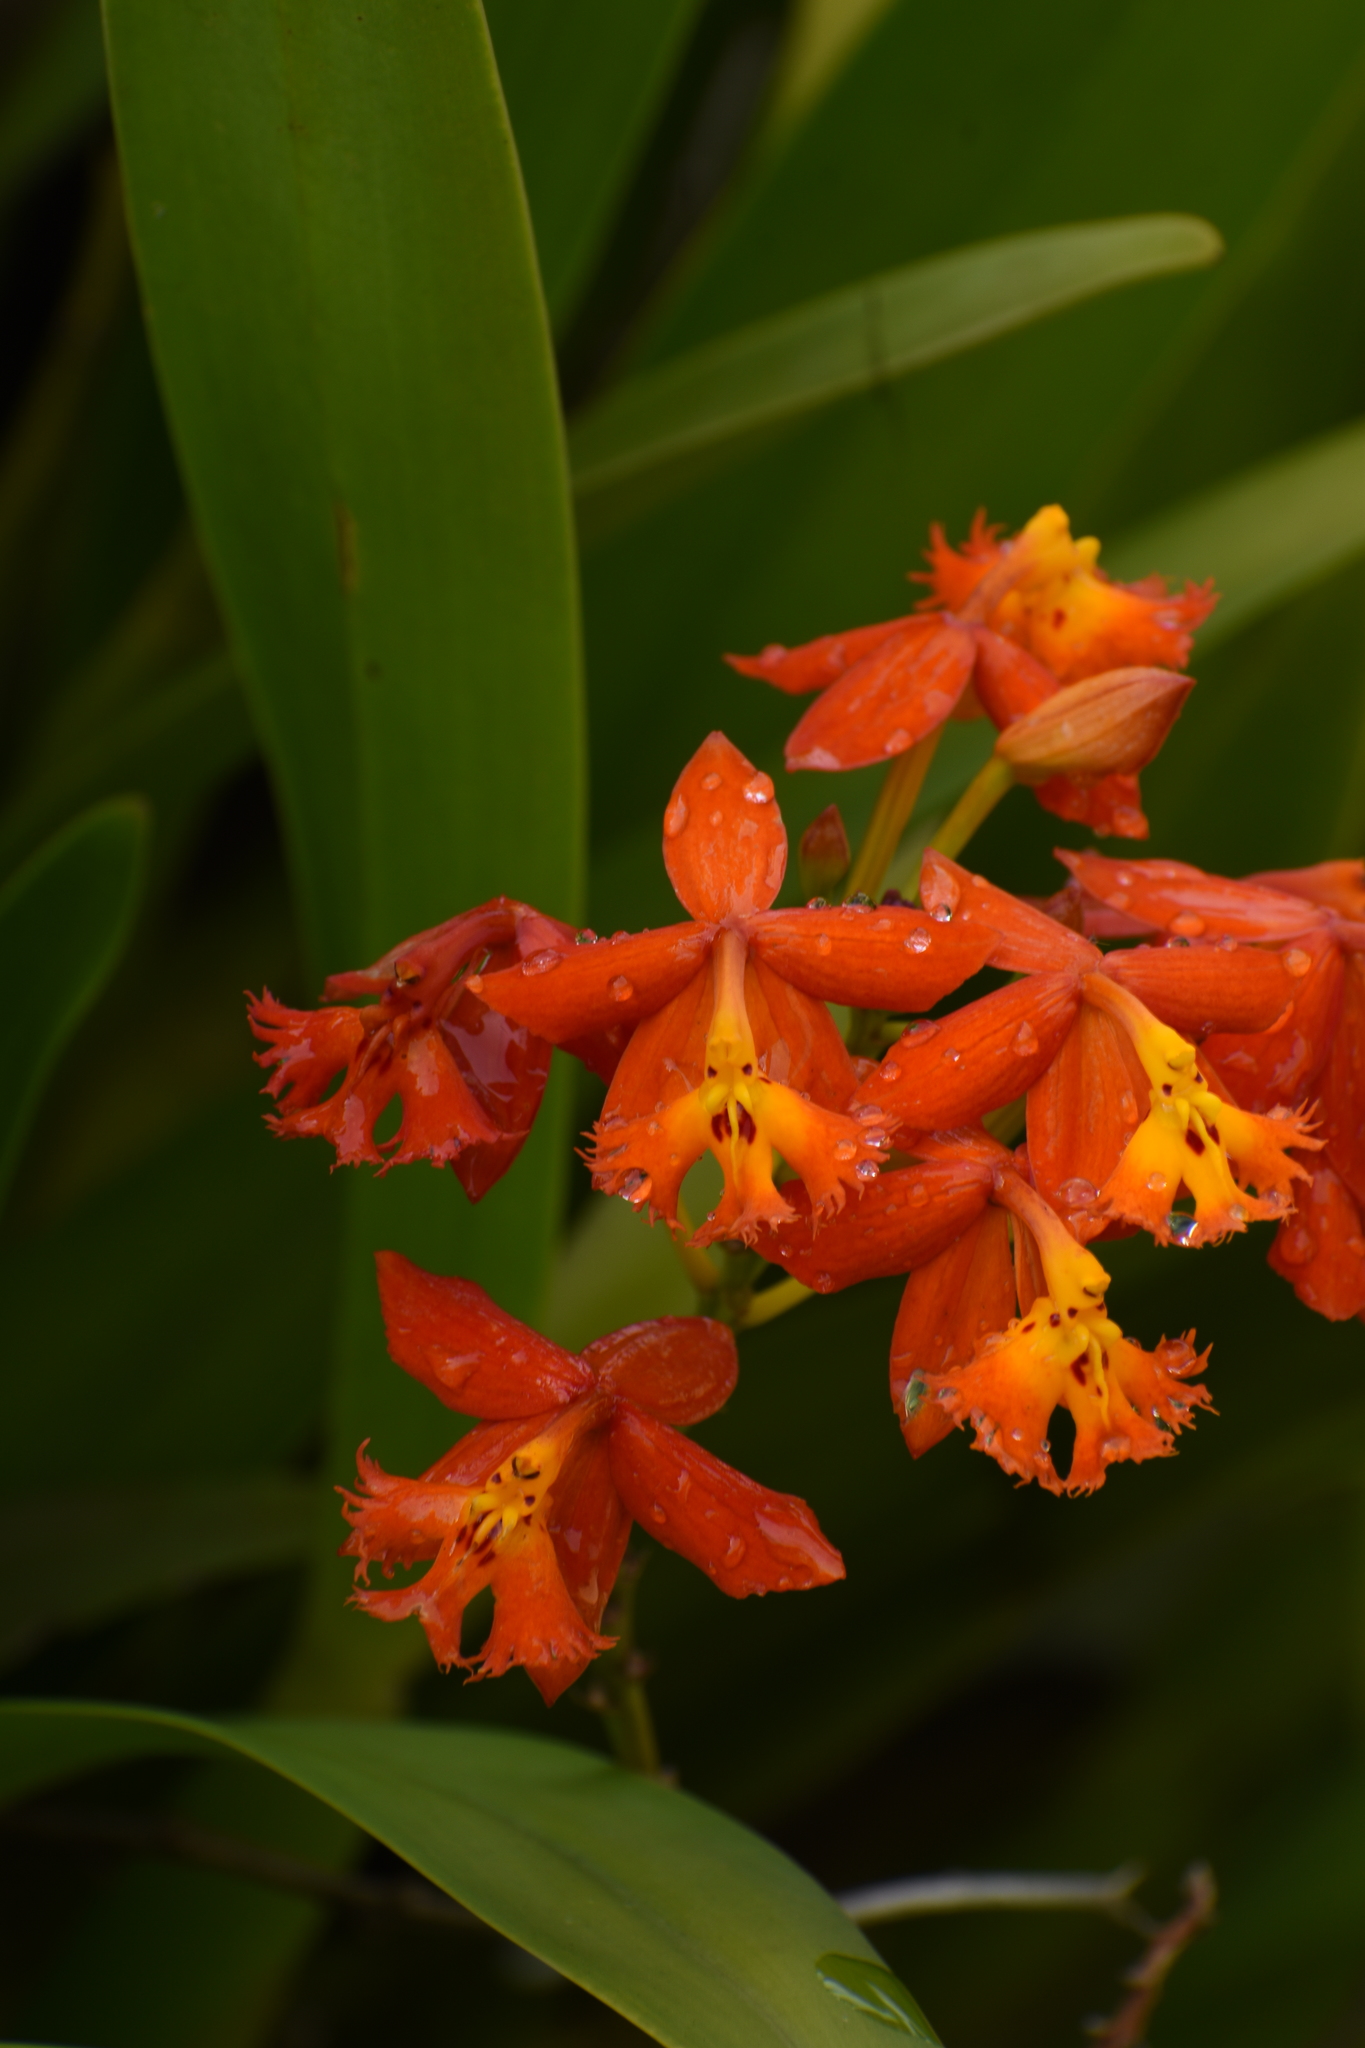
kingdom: Plantae
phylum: Tracheophyta
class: Liliopsida
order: Asparagales
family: Orchidaceae
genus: Epidendrum
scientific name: Epidendrum radicans
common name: Fire star orchid
